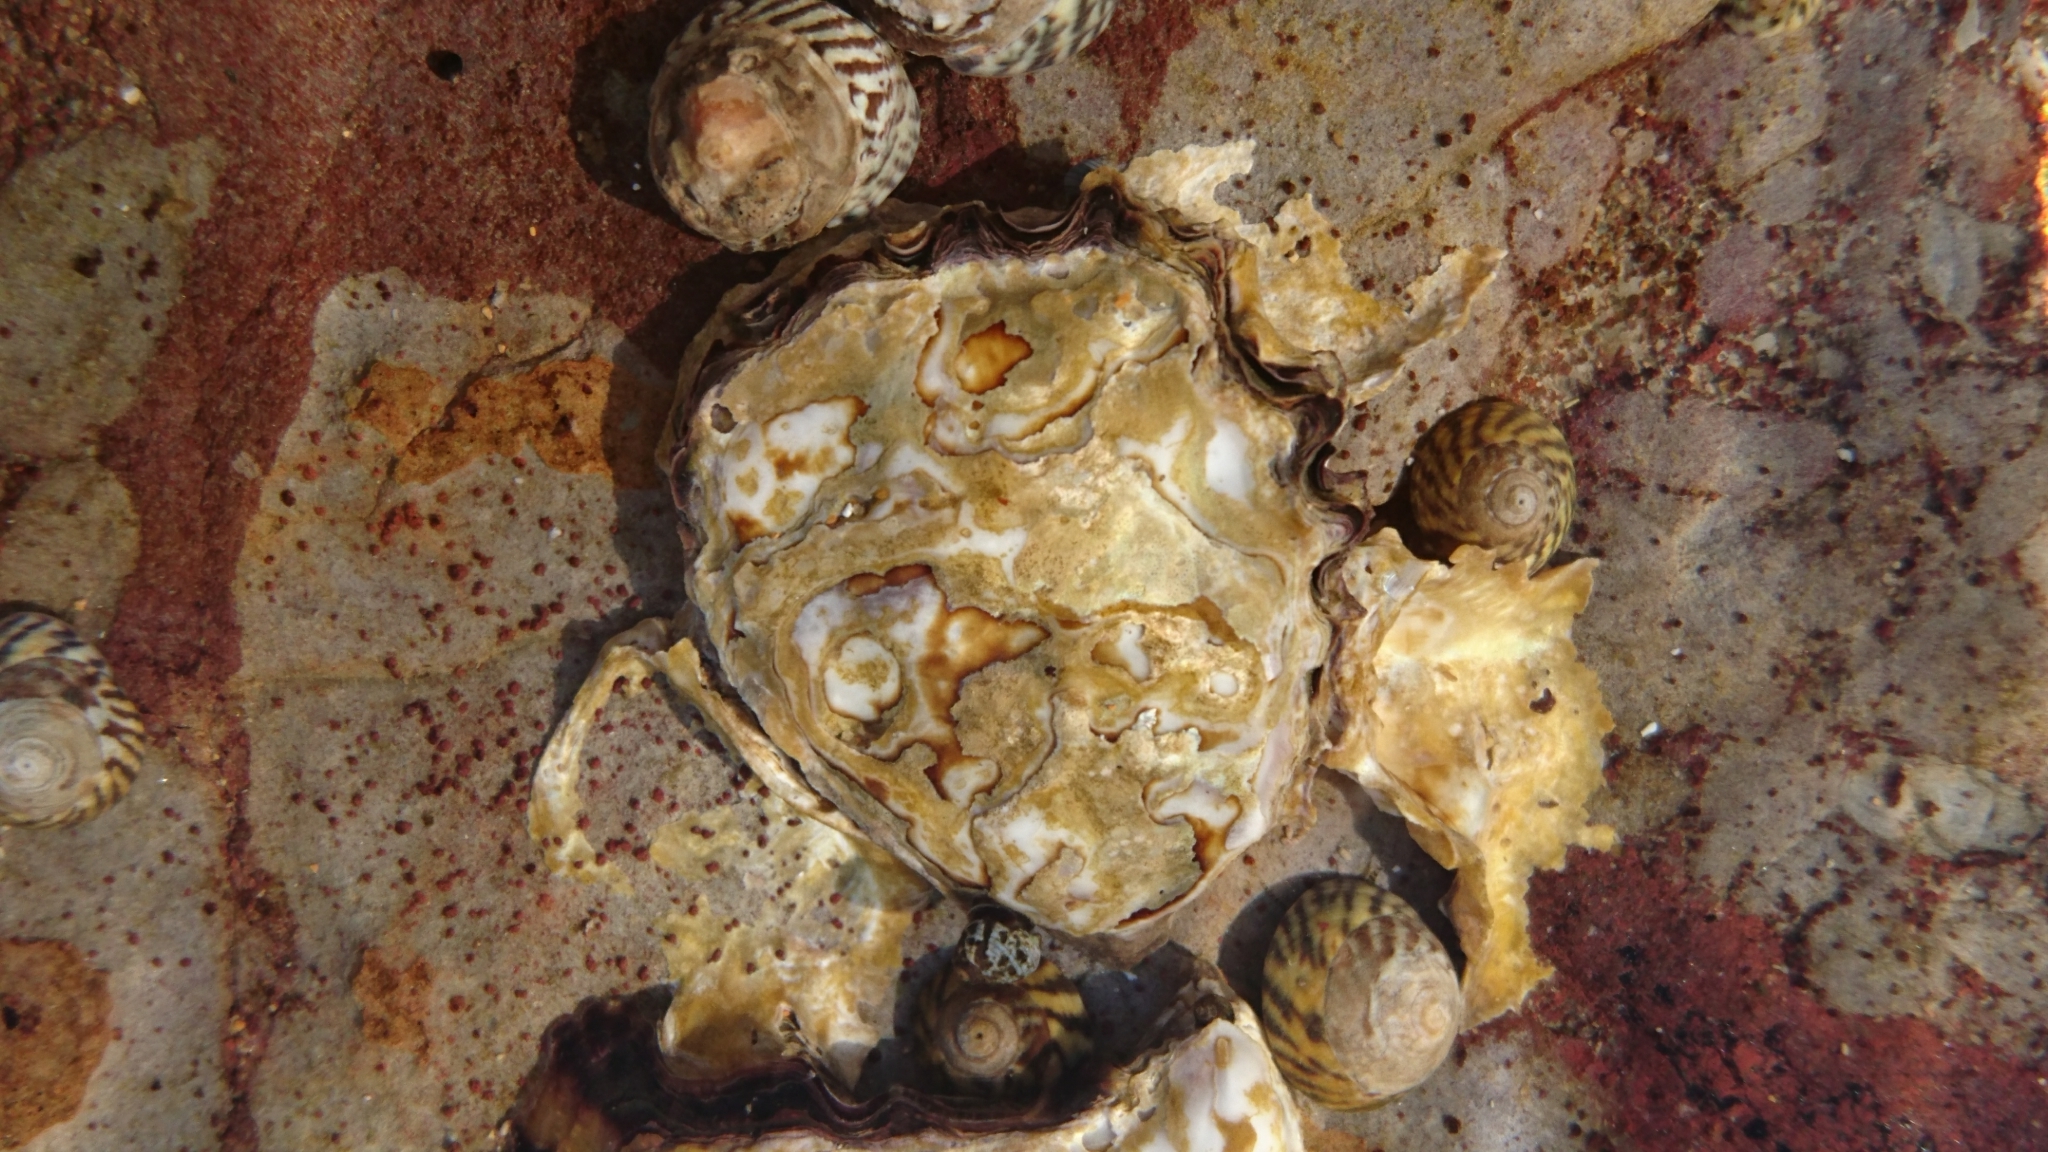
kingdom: Animalia
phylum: Mollusca
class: Bivalvia
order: Ostreida
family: Ostreidae
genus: Saccostrea
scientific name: Saccostrea glomerata
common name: Sydney cupped oyster
